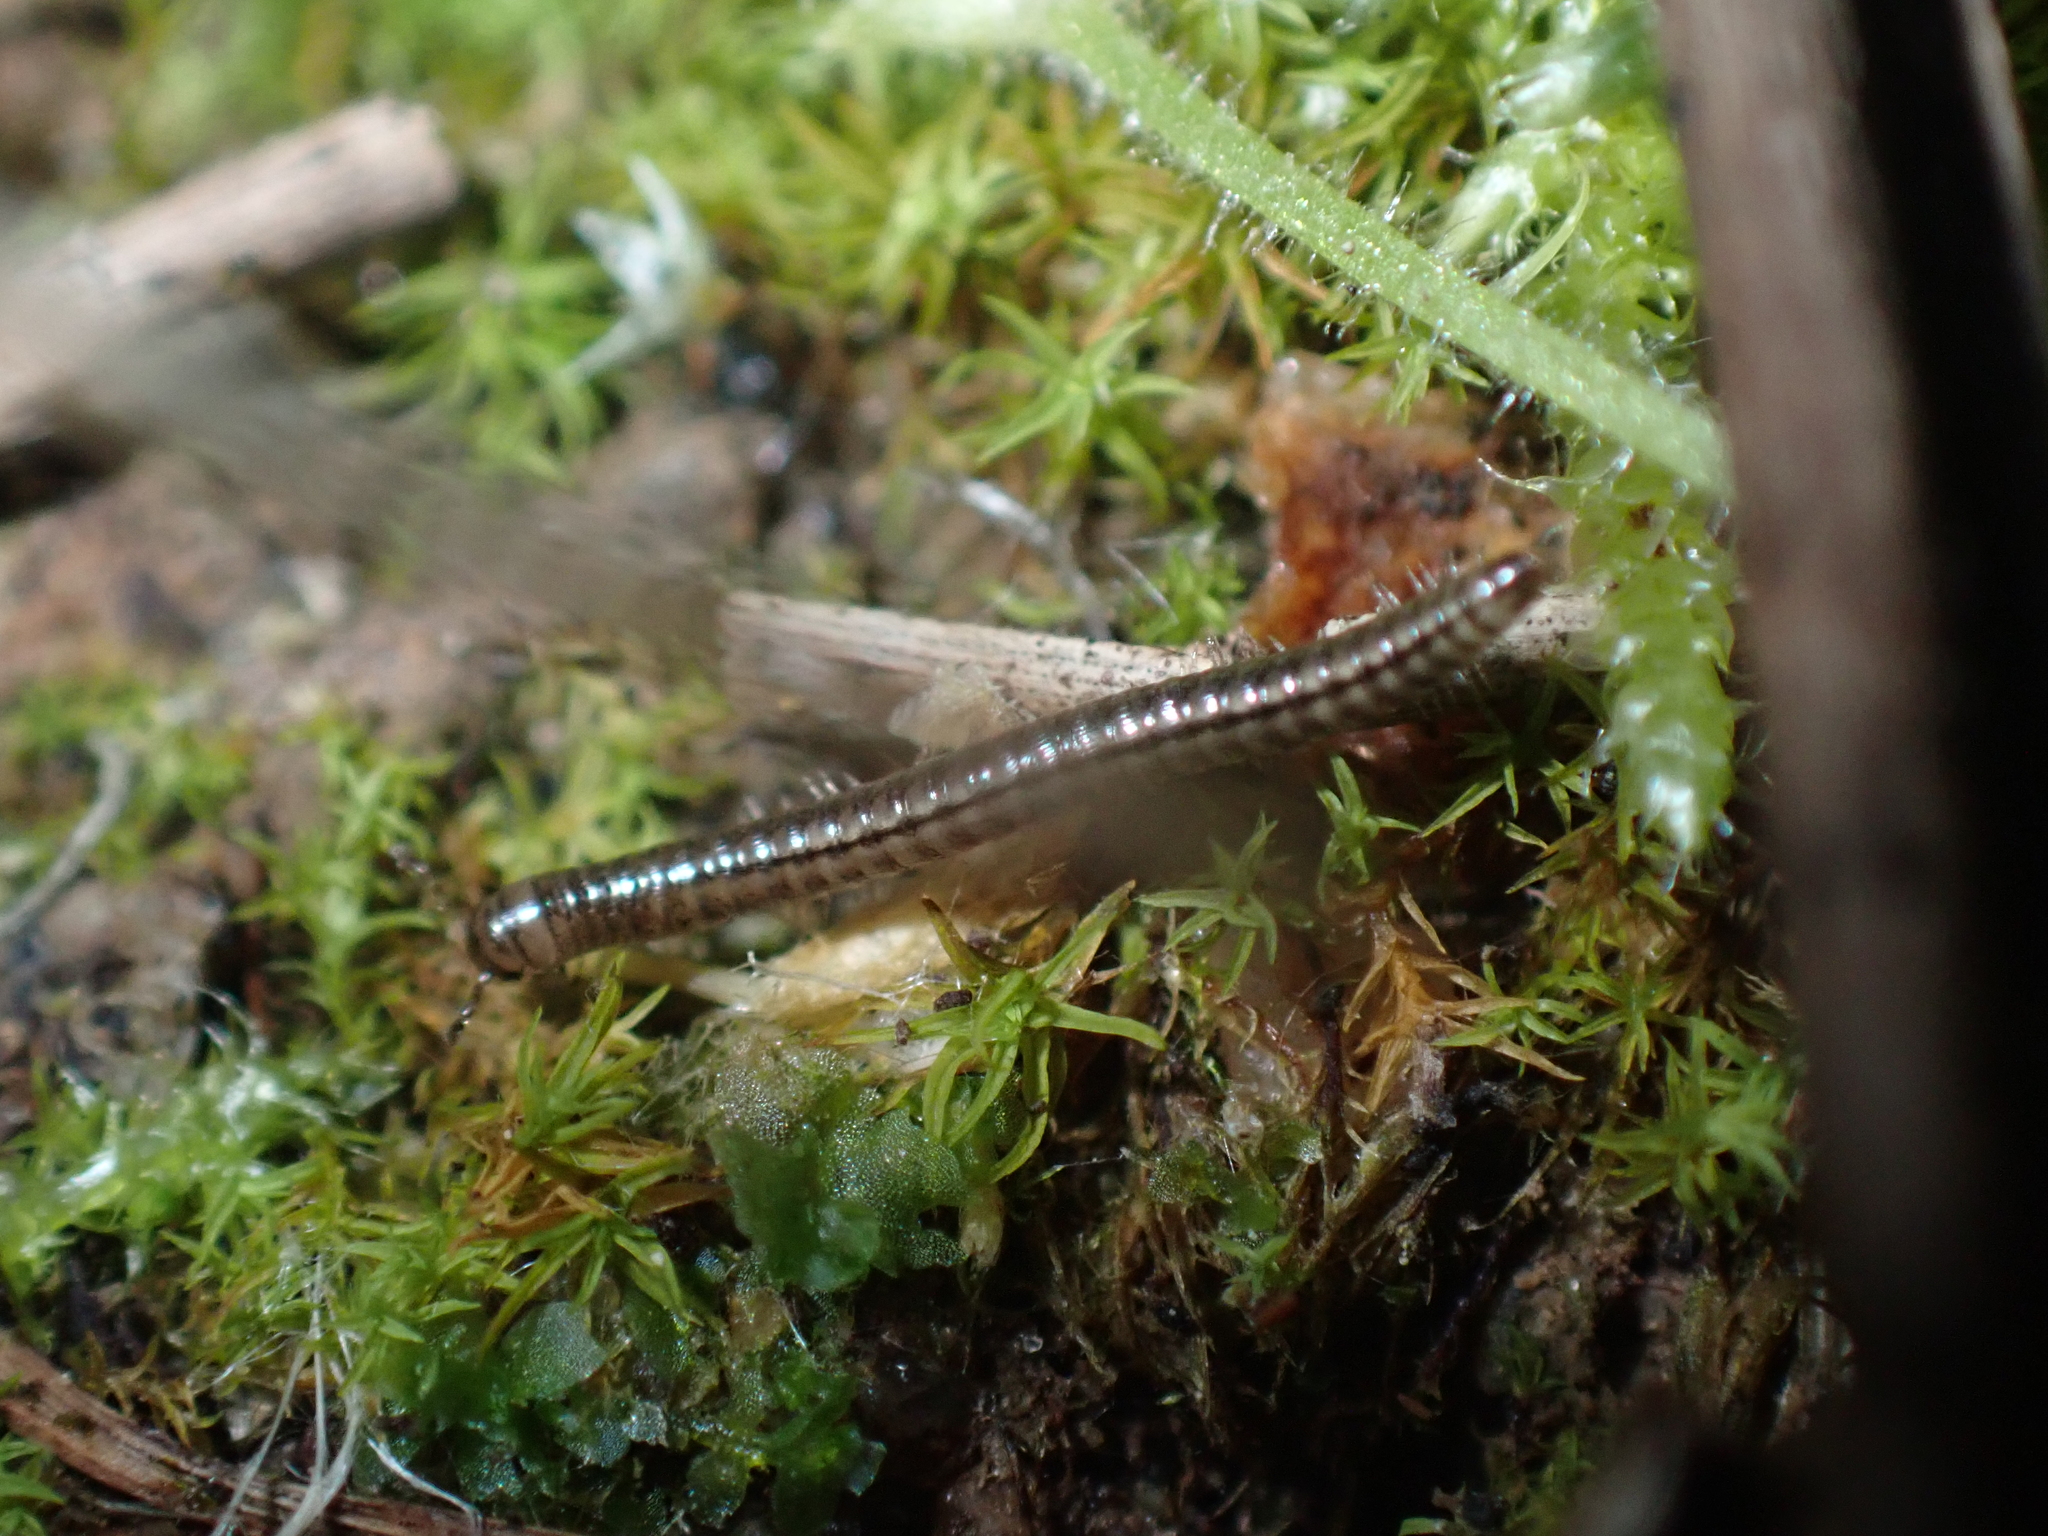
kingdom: Animalia
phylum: Arthropoda
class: Diplopoda
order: Julida
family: Julidae
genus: Brachyiulus
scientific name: Brachyiulus pusillus
